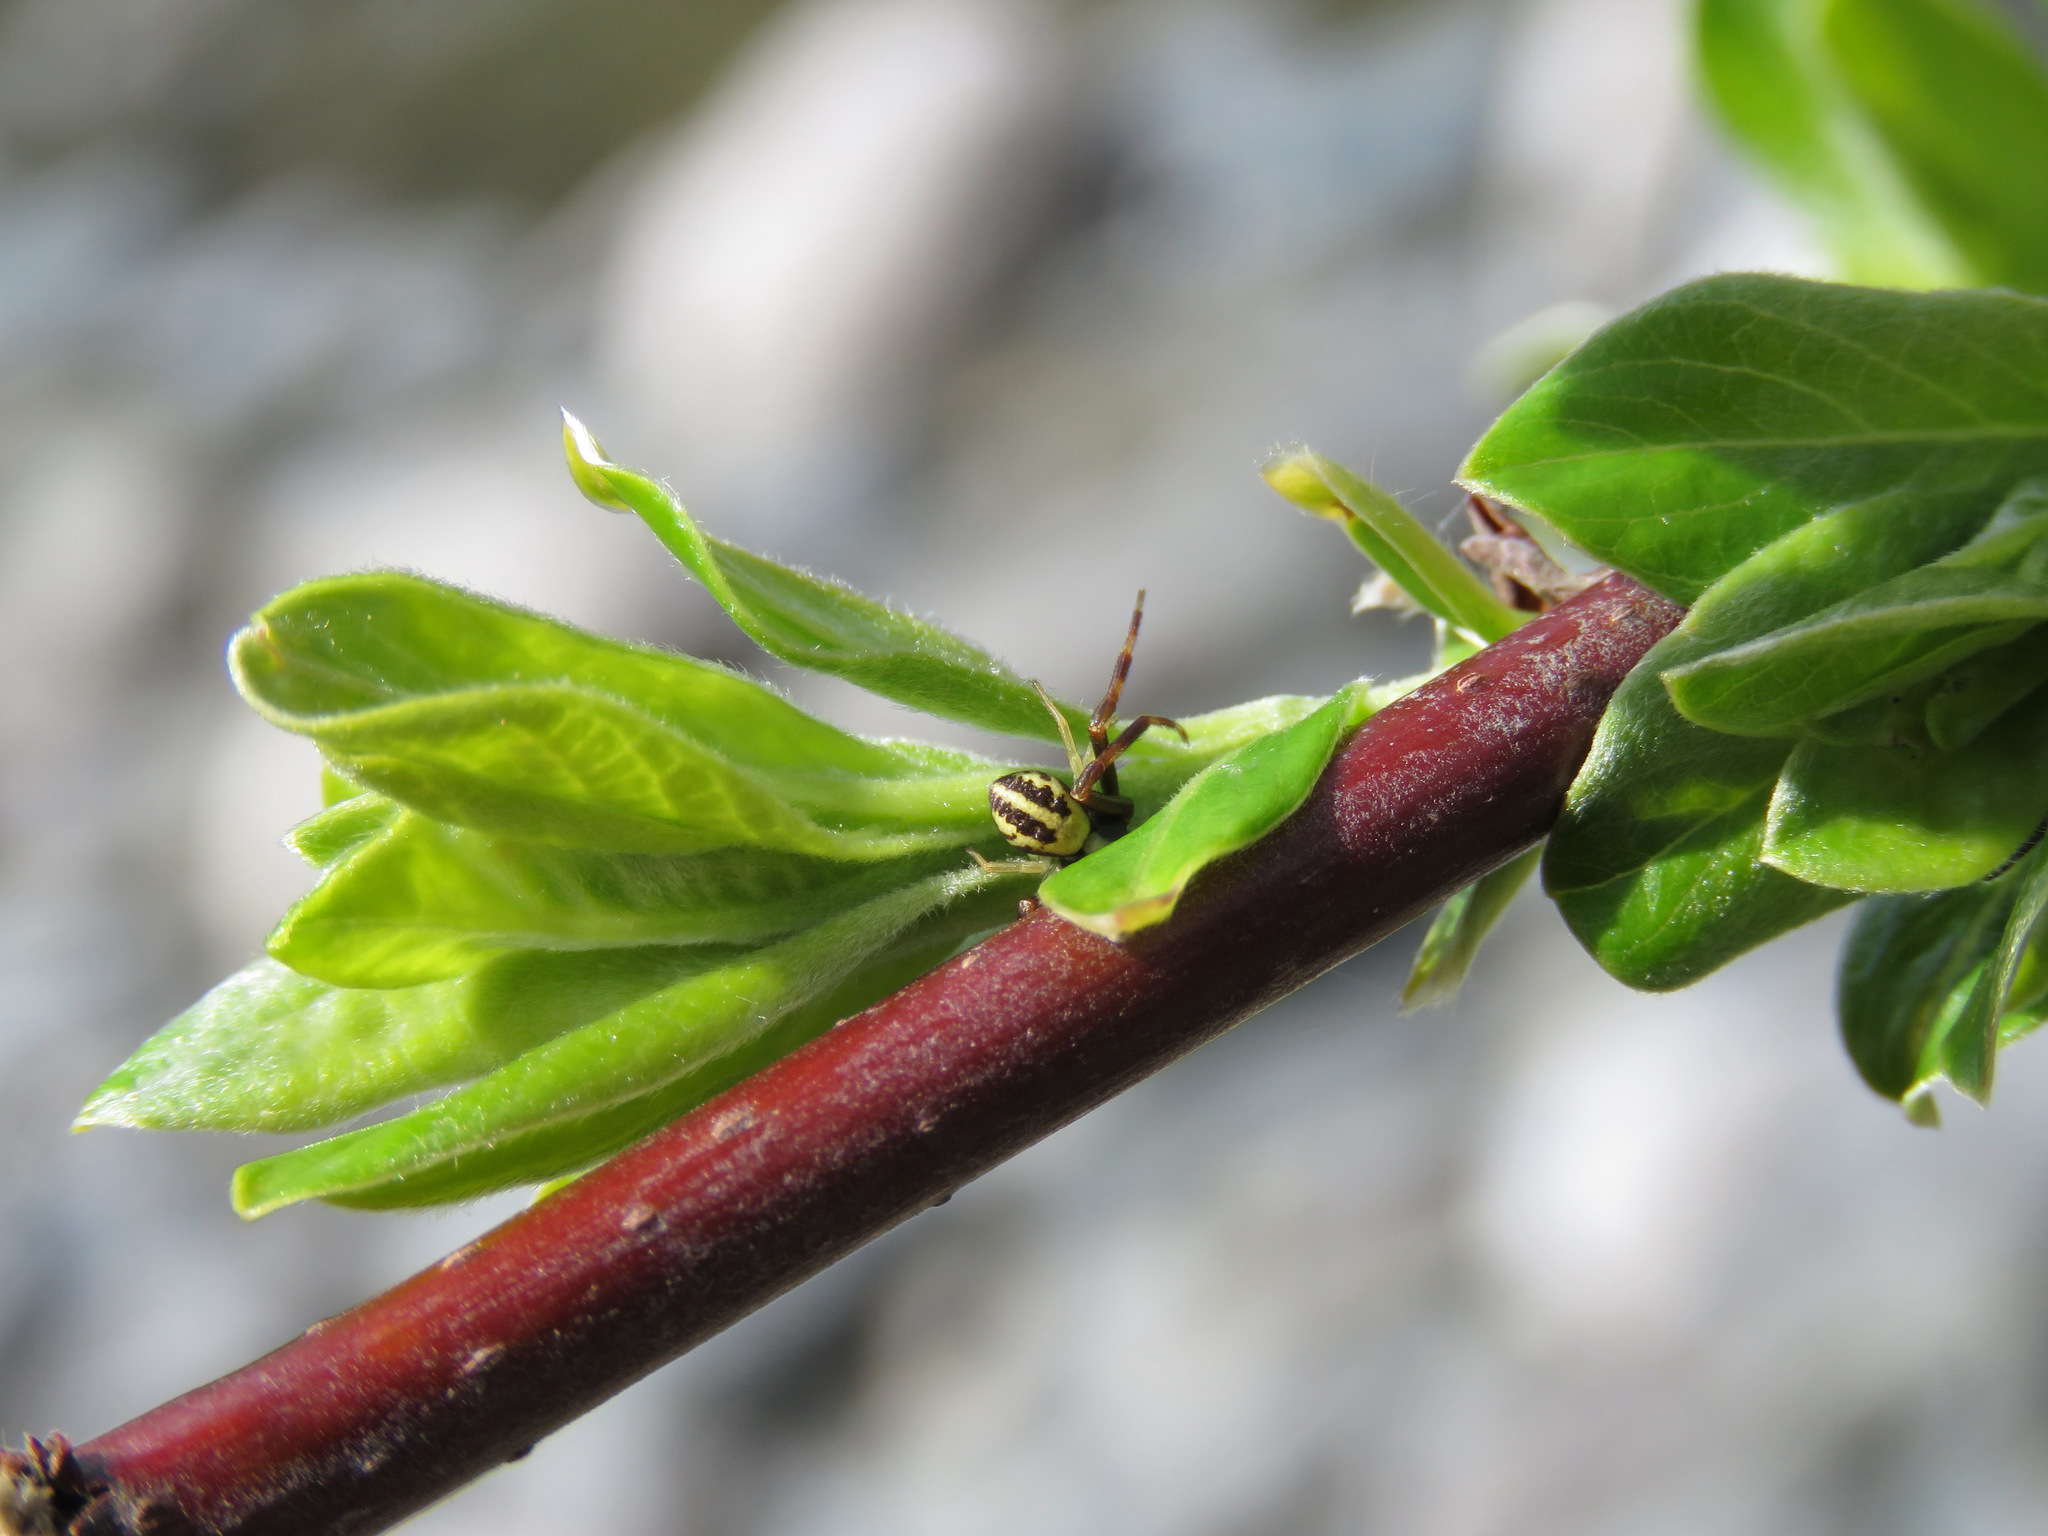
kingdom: Animalia
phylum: Arthropoda
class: Arachnida
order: Araneae
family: Thomisidae
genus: Misumena
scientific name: Misumena vatia
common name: Goldenrod crab spider
